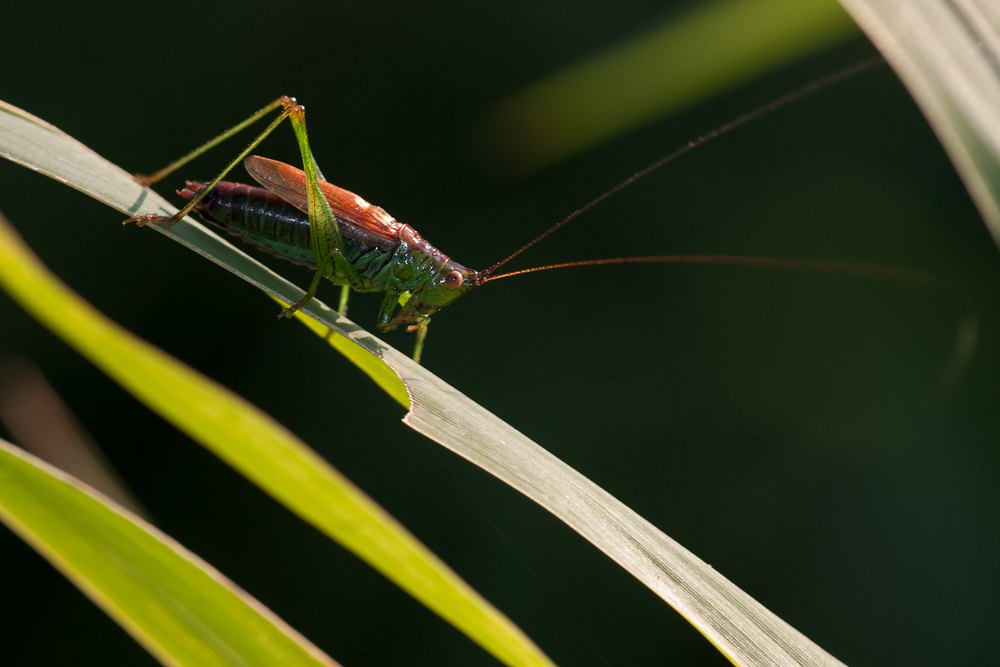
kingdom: Animalia
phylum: Arthropoda
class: Insecta
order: Orthoptera
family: Tettigoniidae
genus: Conocephalus
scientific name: Conocephalus dorsalis
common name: Short-winged conehead
